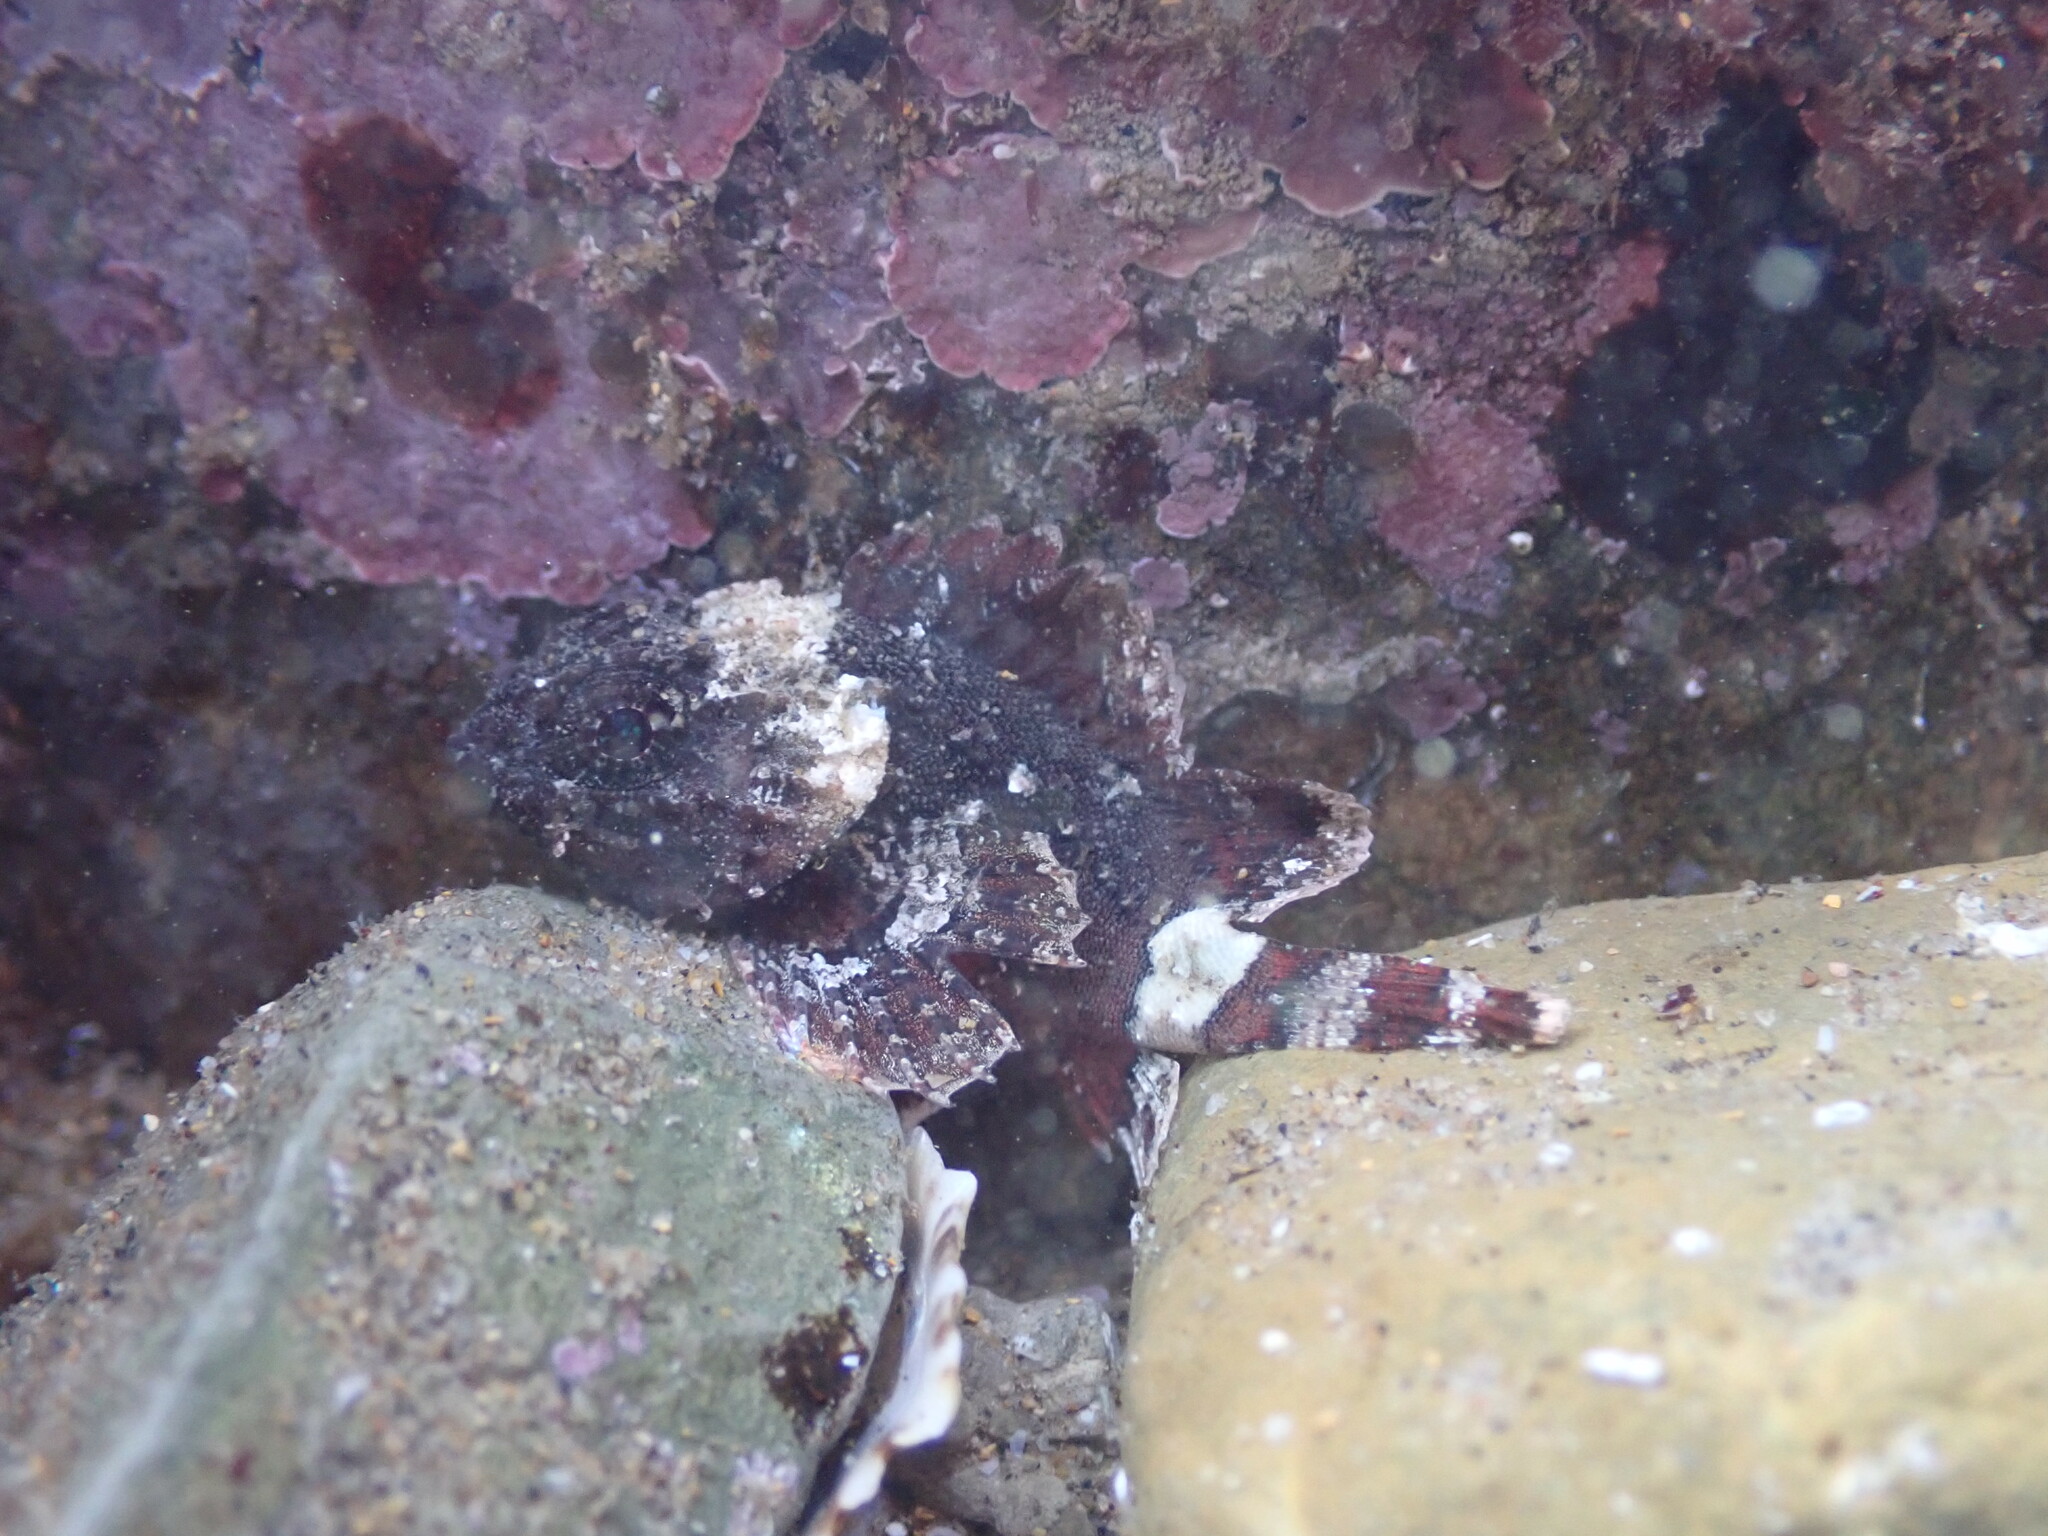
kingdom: Animalia
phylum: Chordata
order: Scorpaeniformes
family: Scorpaenidae
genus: Scorpaena
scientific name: Scorpaena porcus
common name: Black scorpionfish
